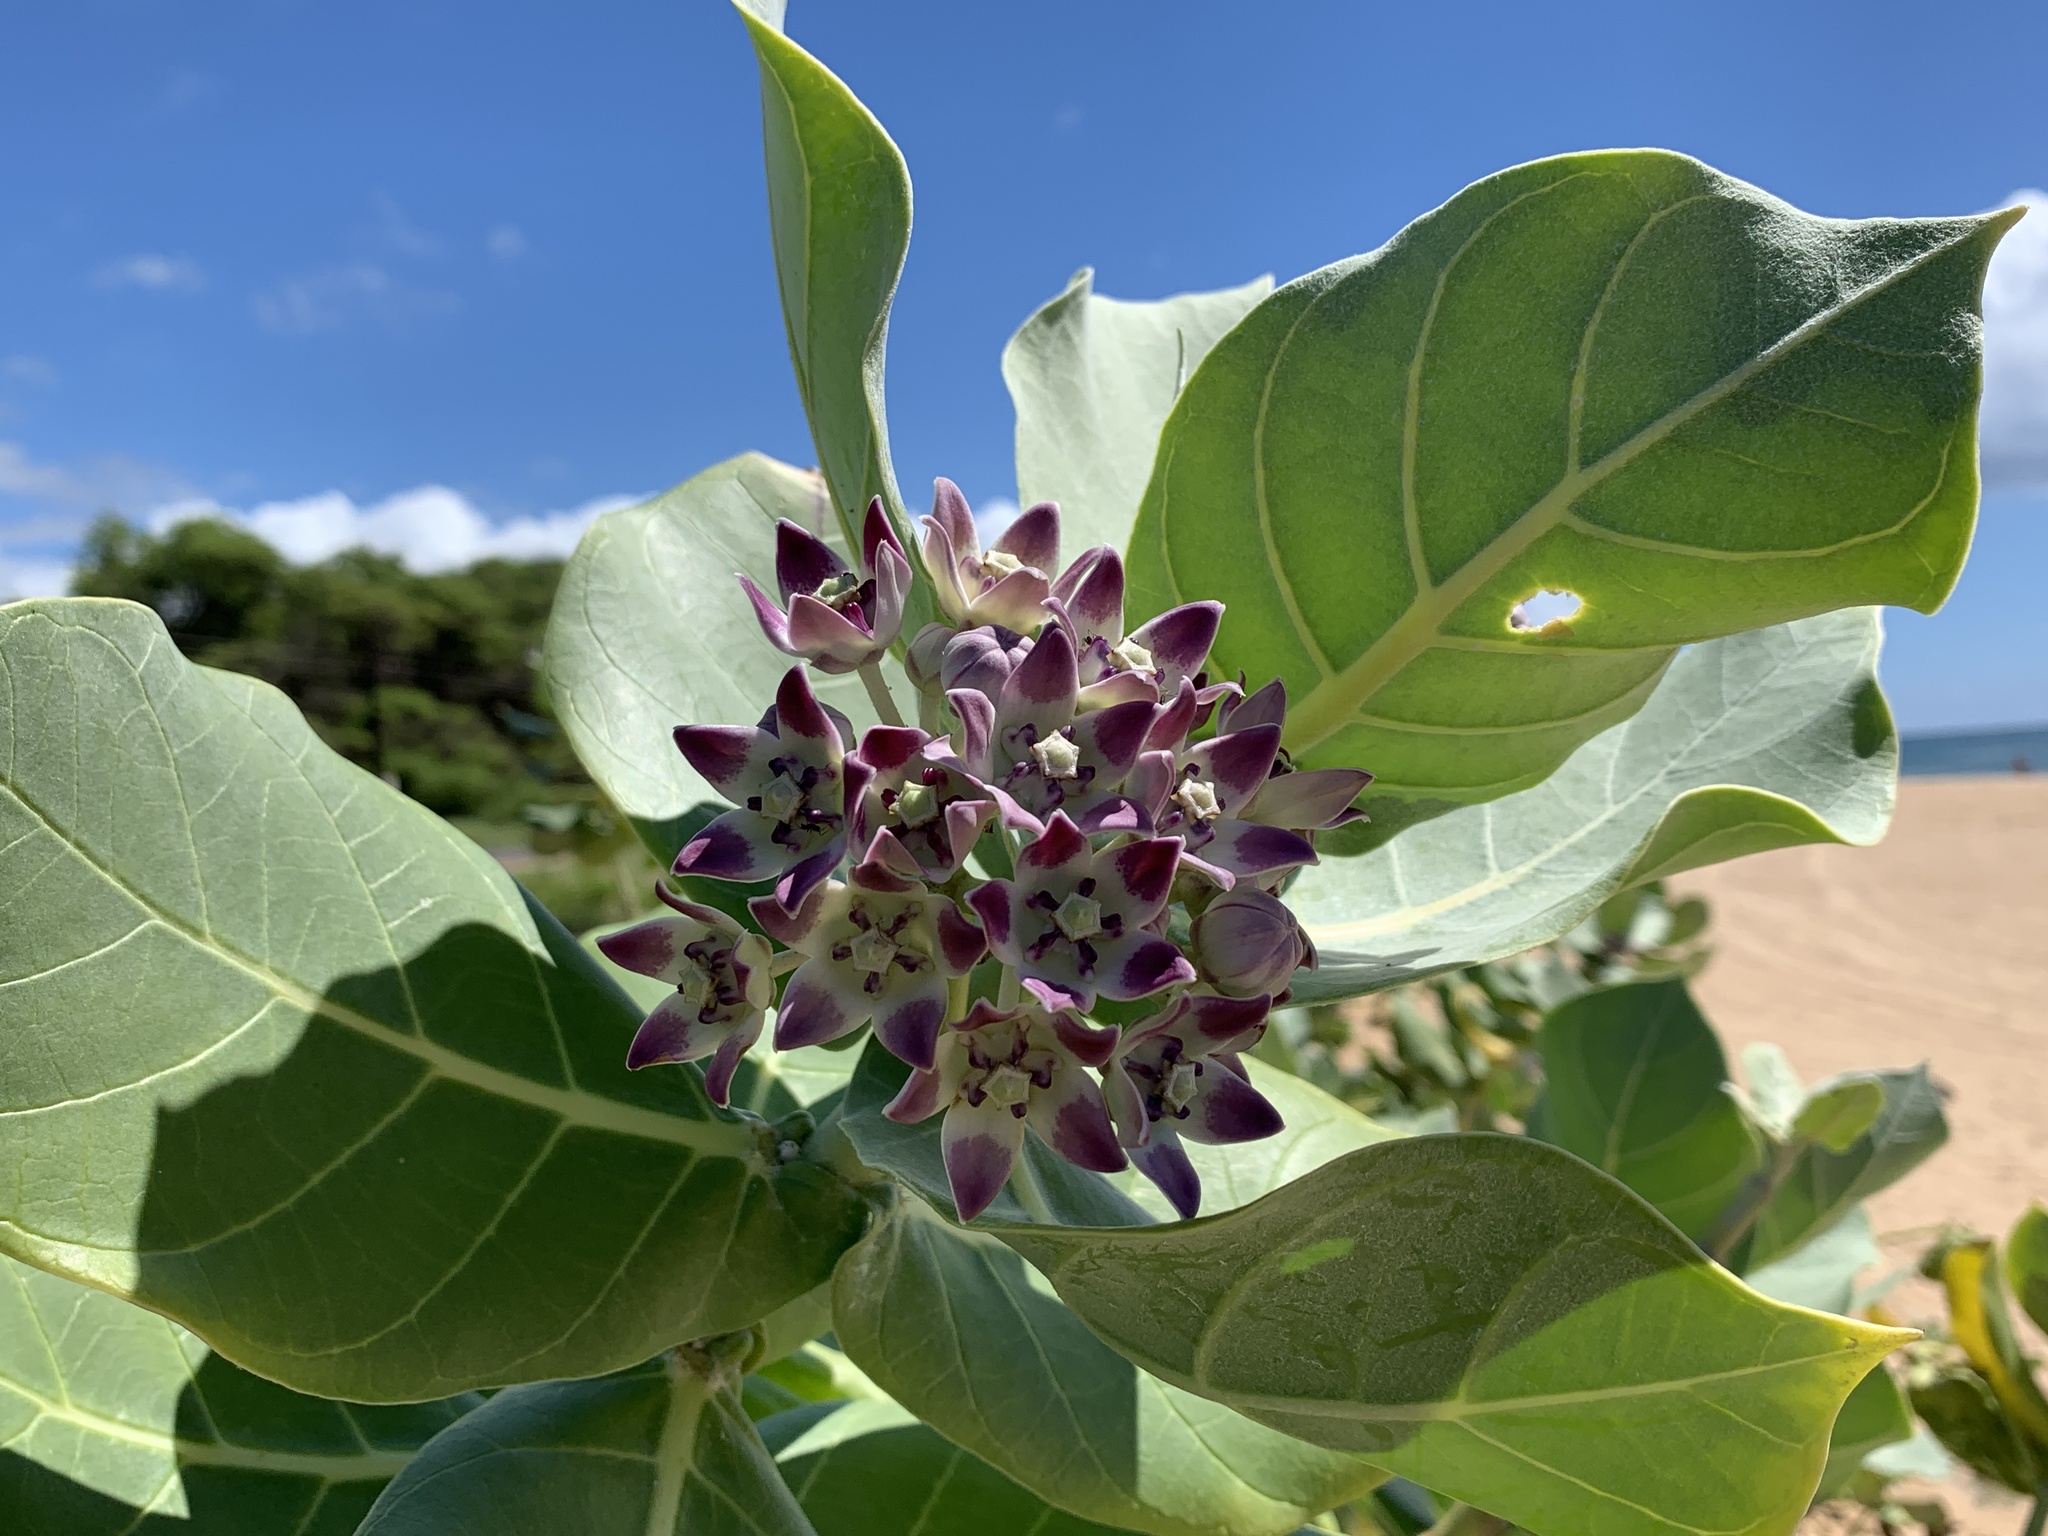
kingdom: Plantae
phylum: Tracheophyta
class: Magnoliopsida
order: Gentianales
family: Apocynaceae
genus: Calotropis
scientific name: Calotropis procera
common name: Roostertree
